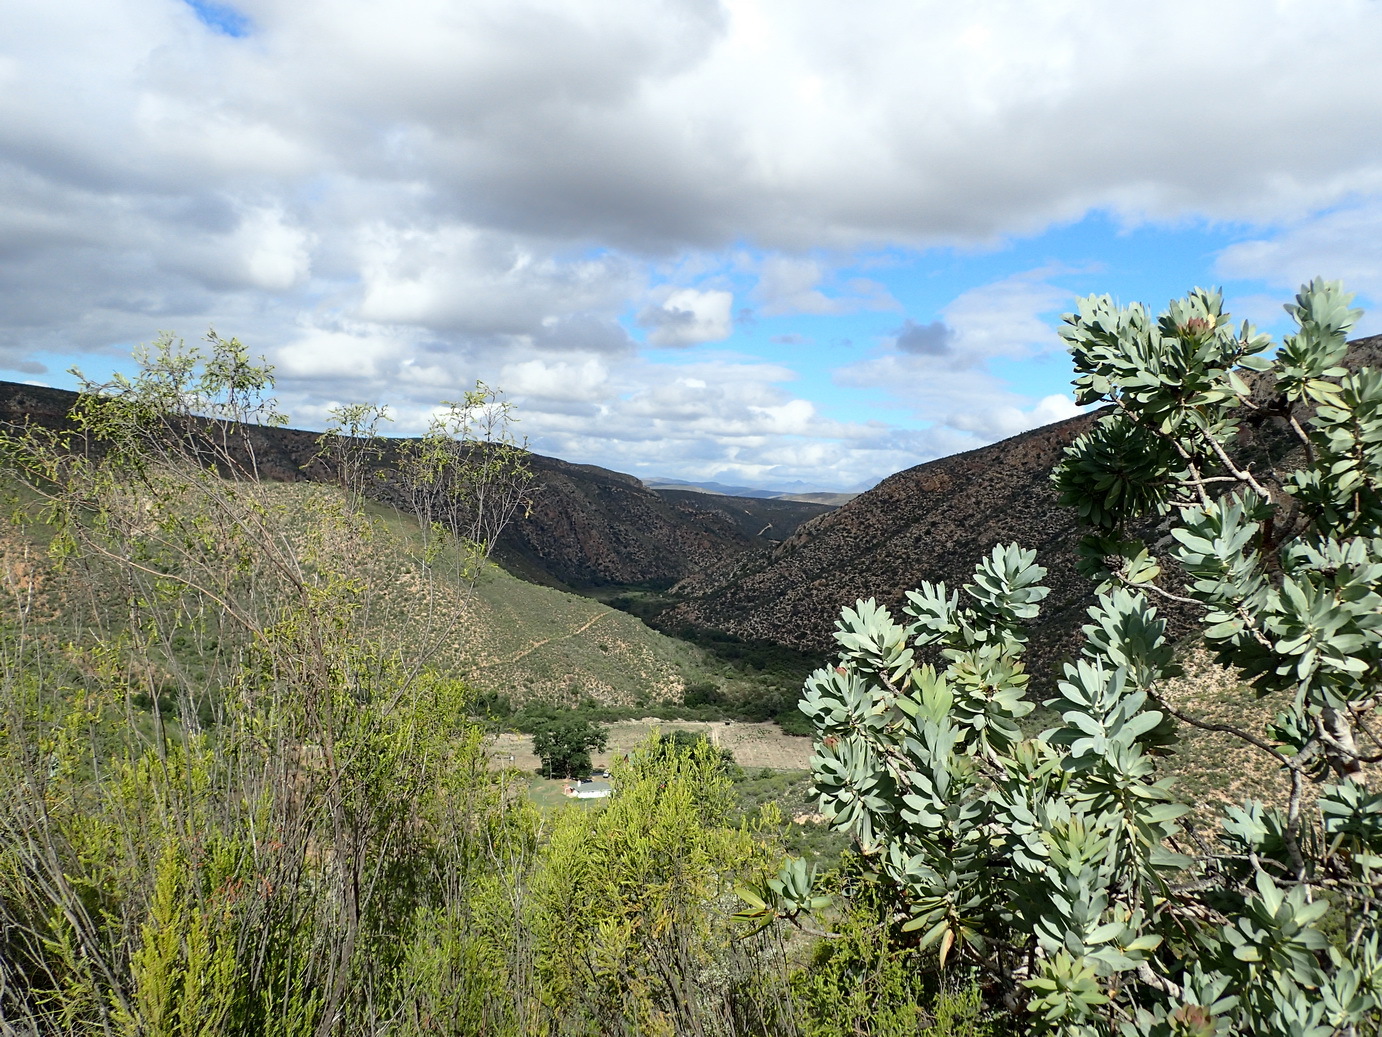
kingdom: Plantae
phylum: Tracheophyta
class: Magnoliopsida
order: Proteales
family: Proteaceae
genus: Protea
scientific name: Protea nitida
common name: Tree protea
